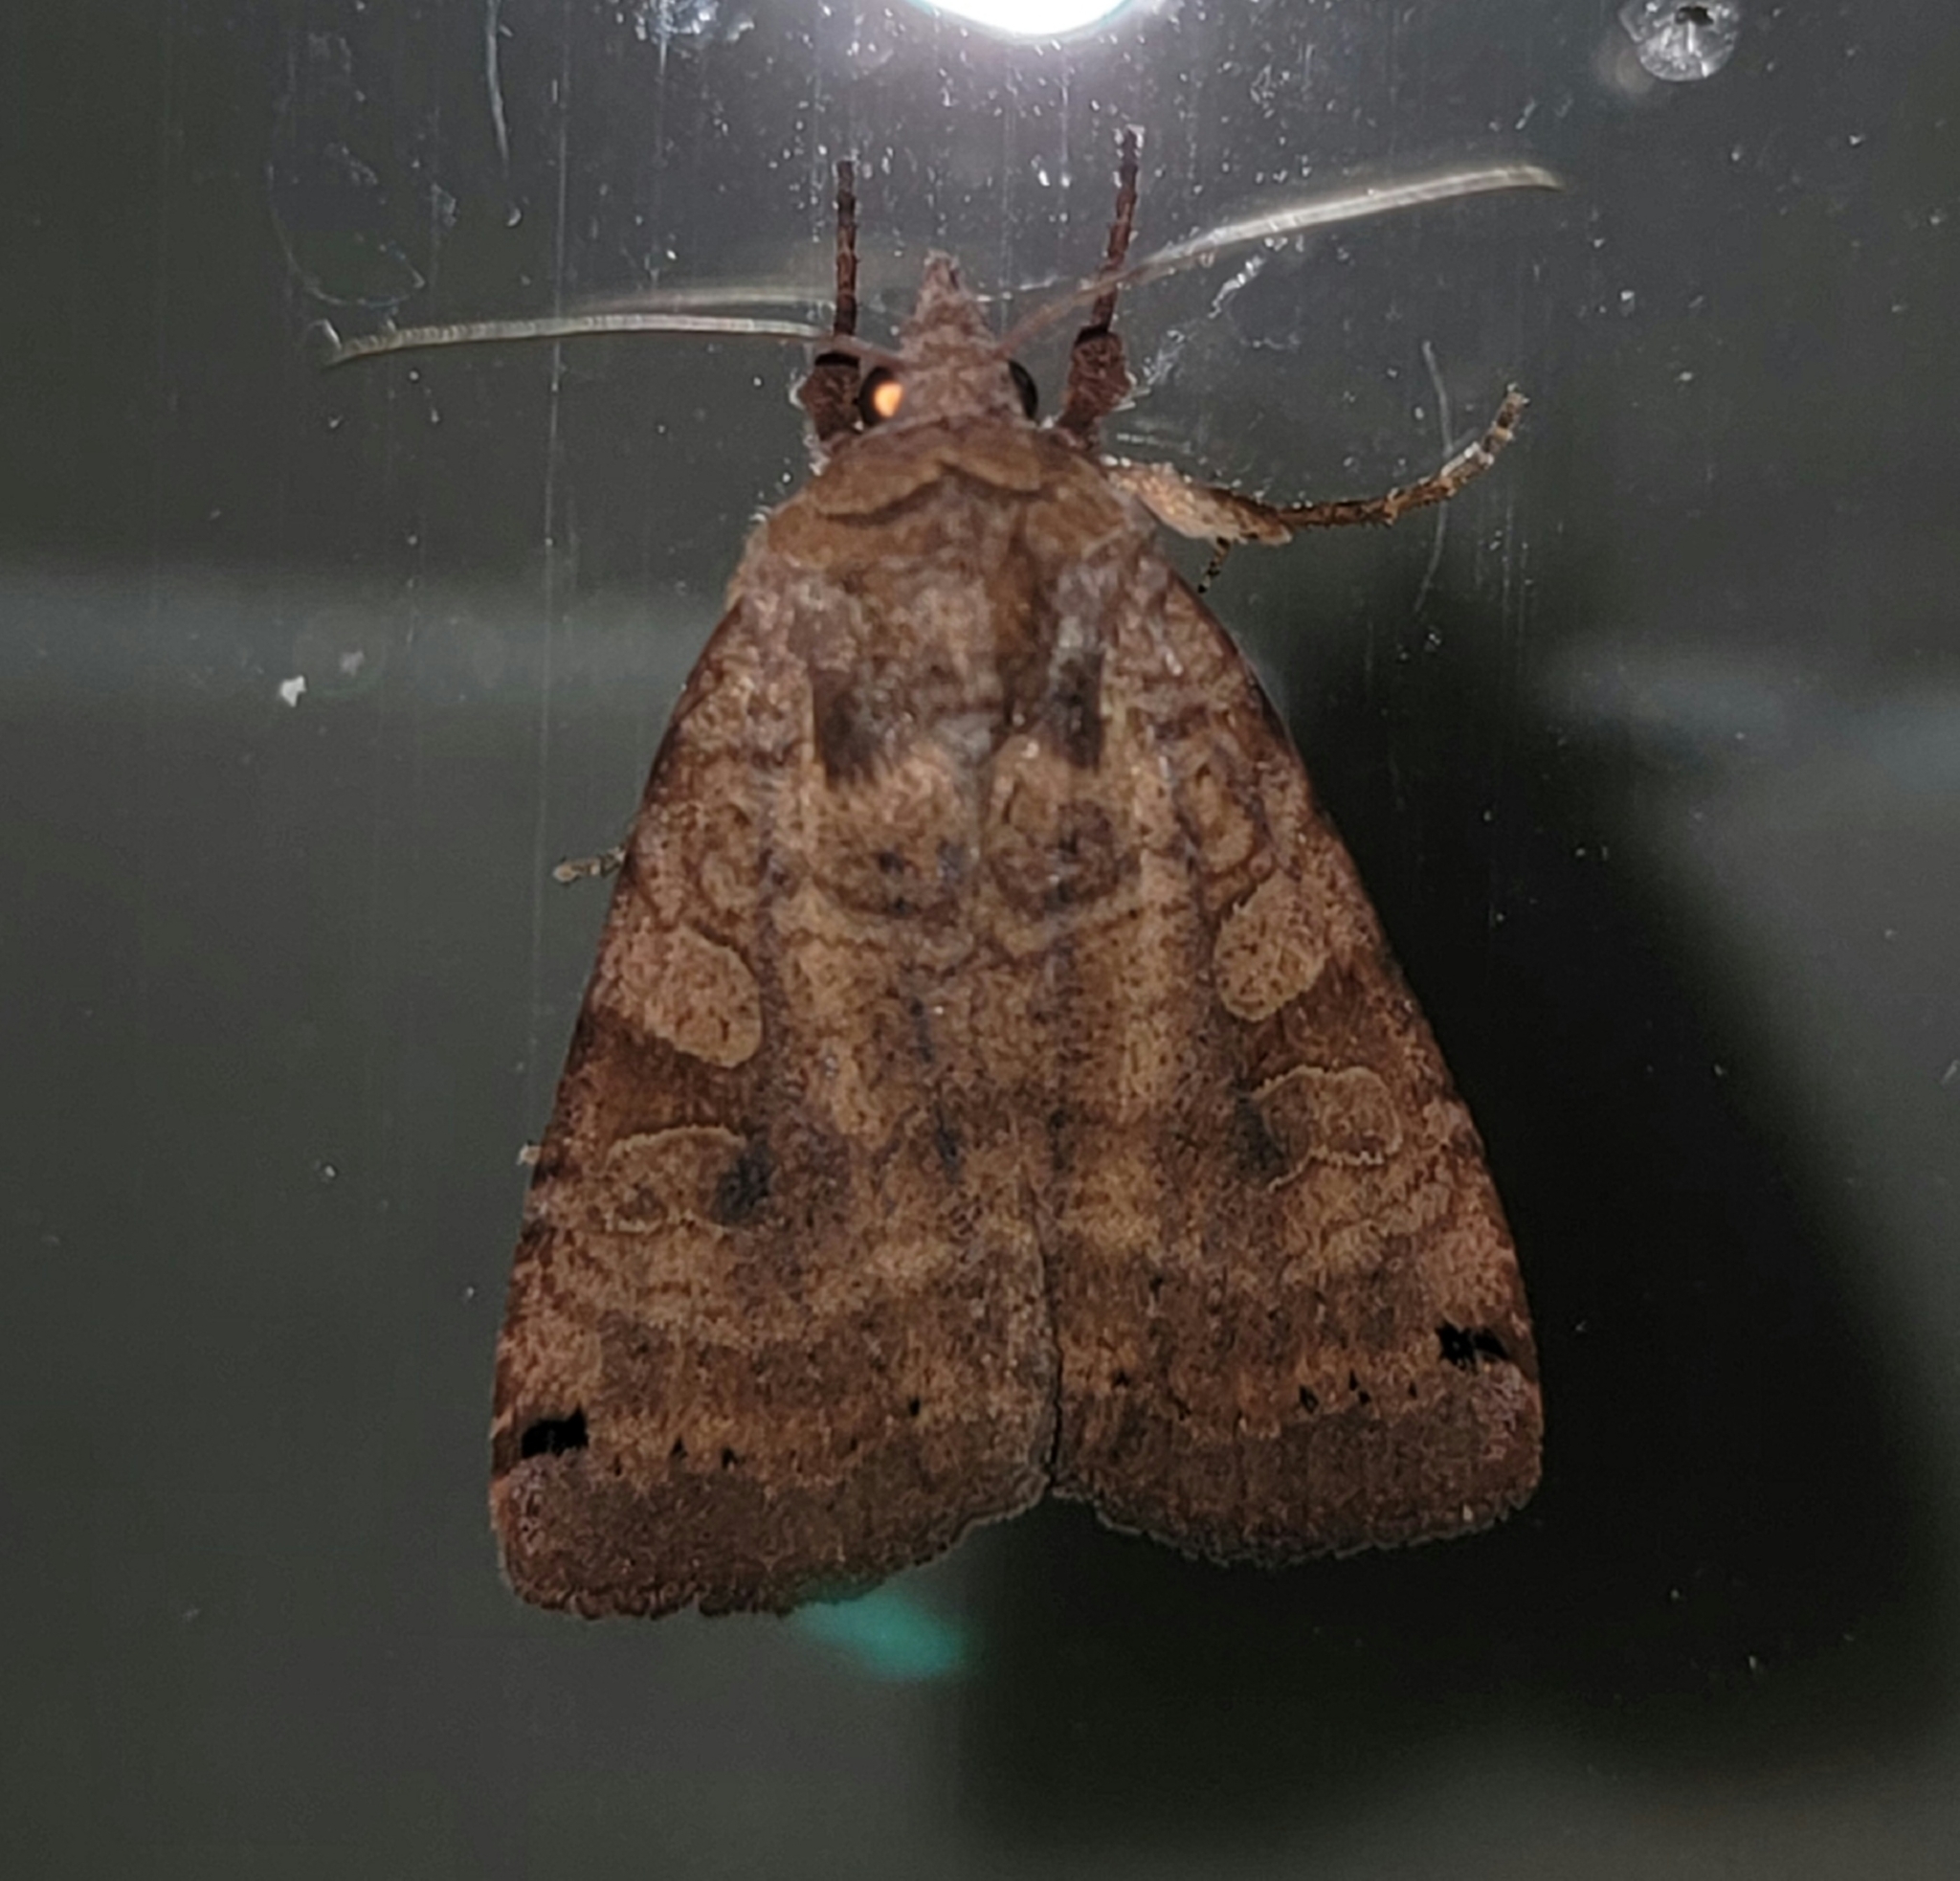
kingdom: Animalia
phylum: Arthropoda
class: Insecta
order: Lepidoptera
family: Noctuidae
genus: Xestia
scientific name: Xestia smithii
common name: Smith's dart
